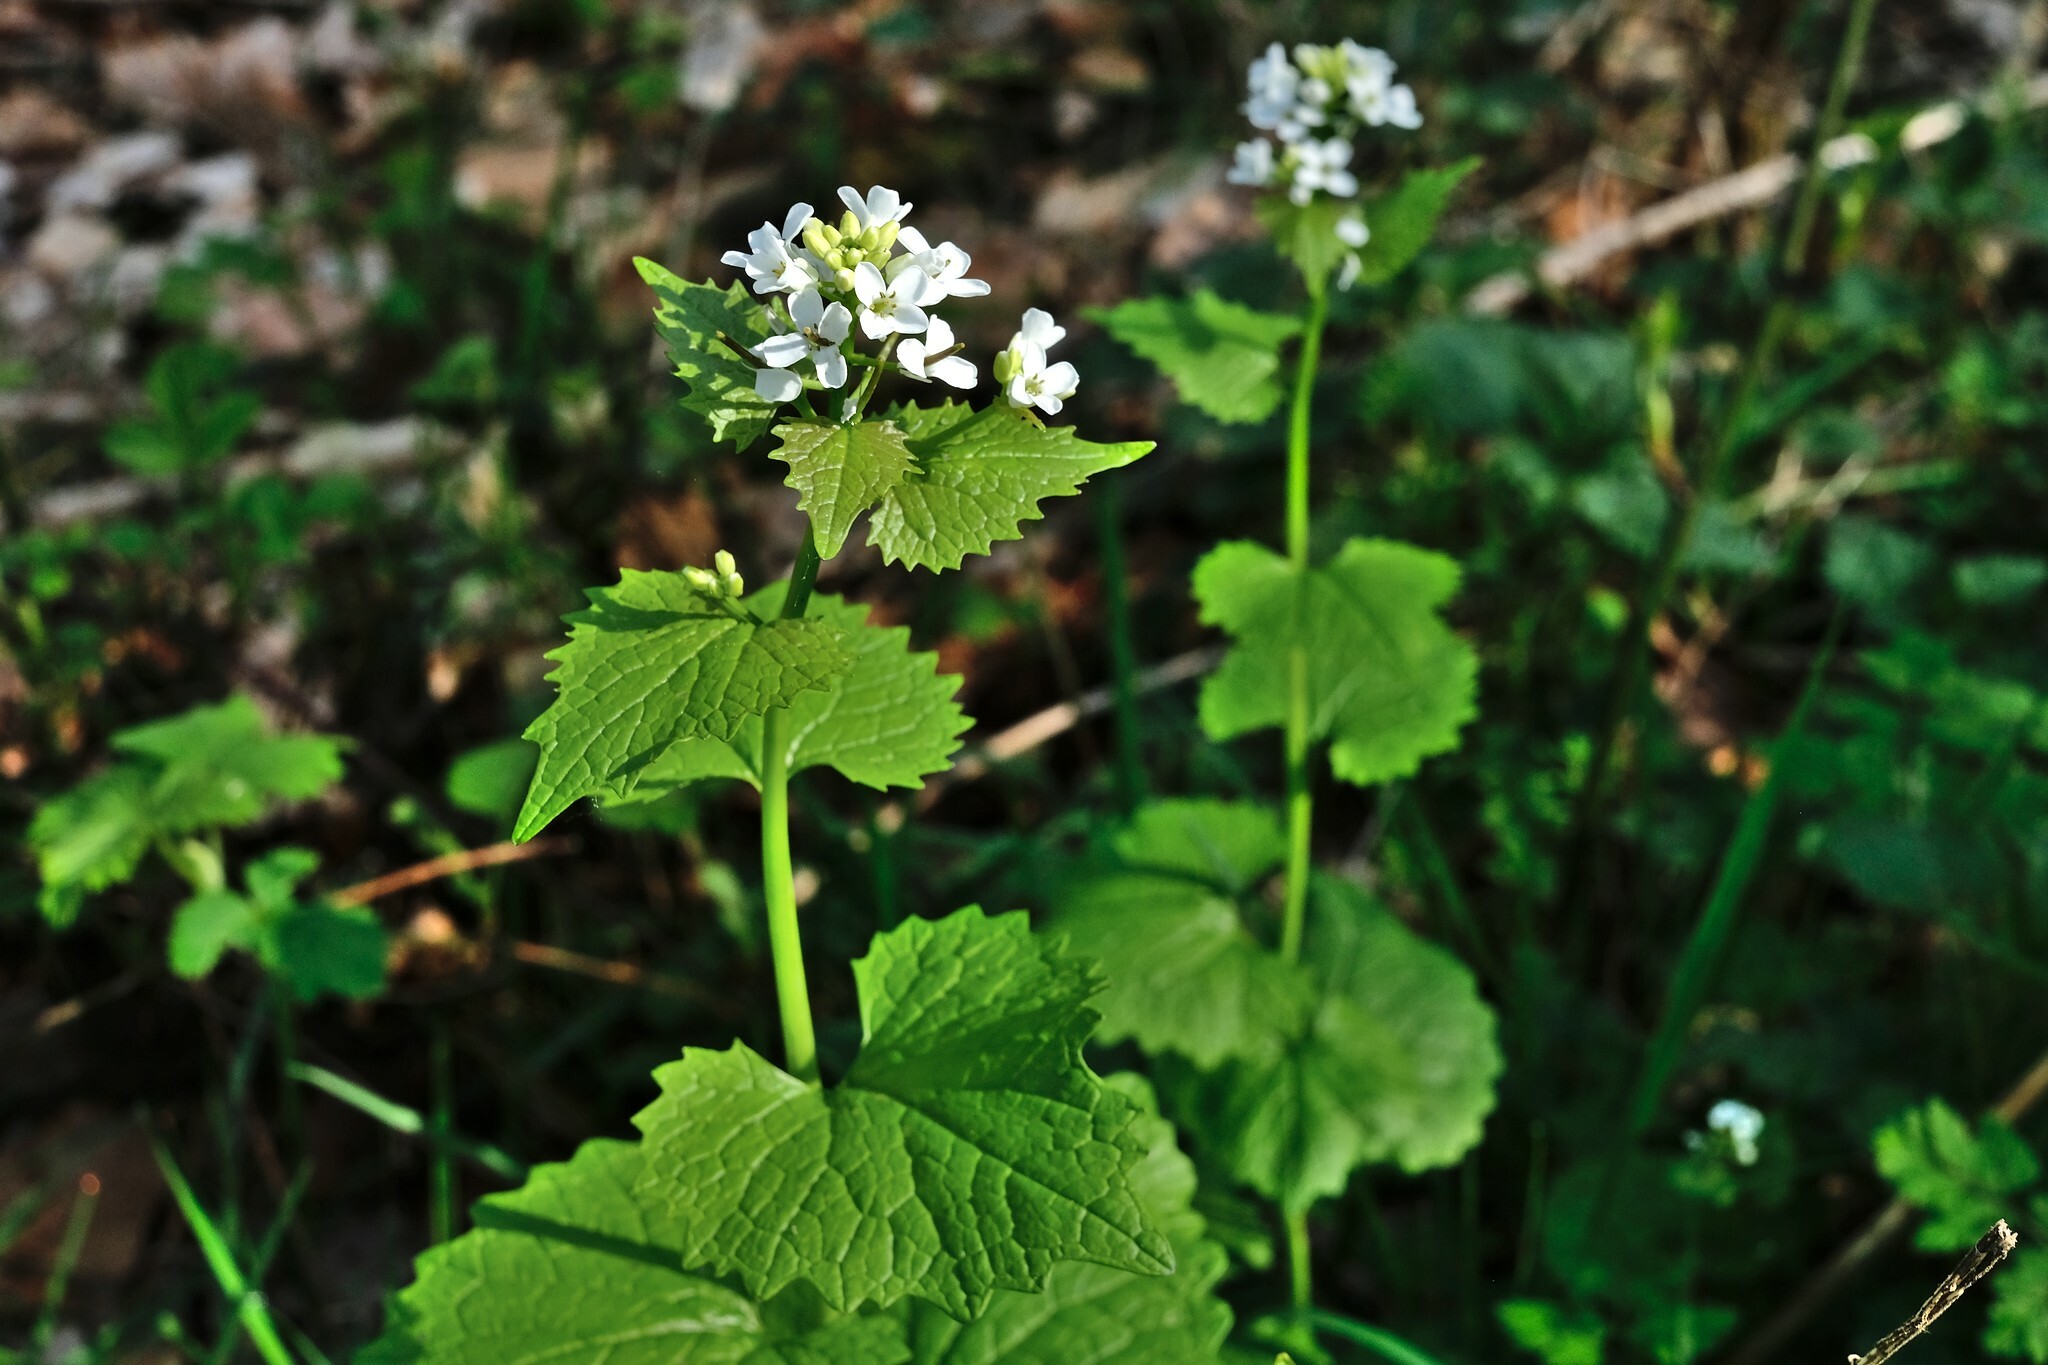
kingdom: Plantae
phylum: Tracheophyta
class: Magnoliopsida
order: Brassicales
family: Brassicaceae
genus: Alliaria
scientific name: Alliaria petiolata
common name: Garlic mustard
